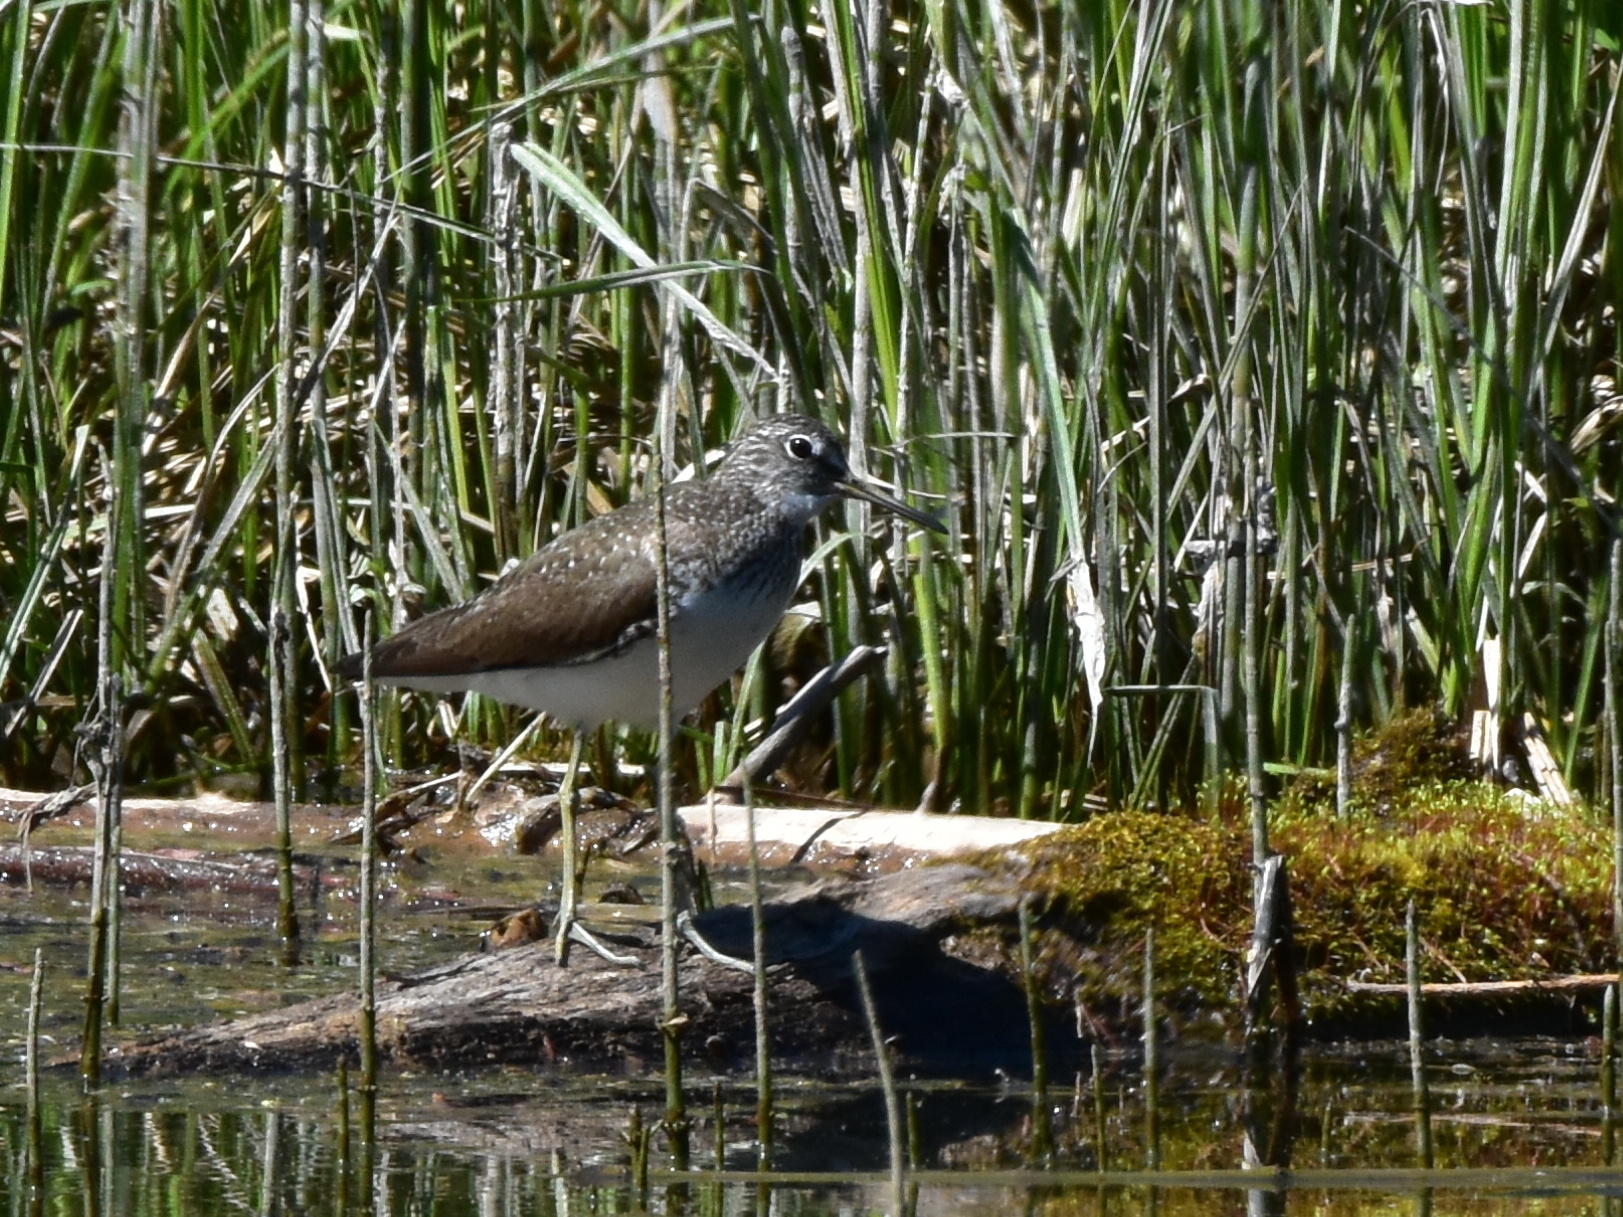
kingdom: Animalia
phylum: Chordata
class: Aves
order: Charadriiformes
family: Scolopacidae
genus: Tringa
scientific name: Tringa ochropus
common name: Green sandpiper
